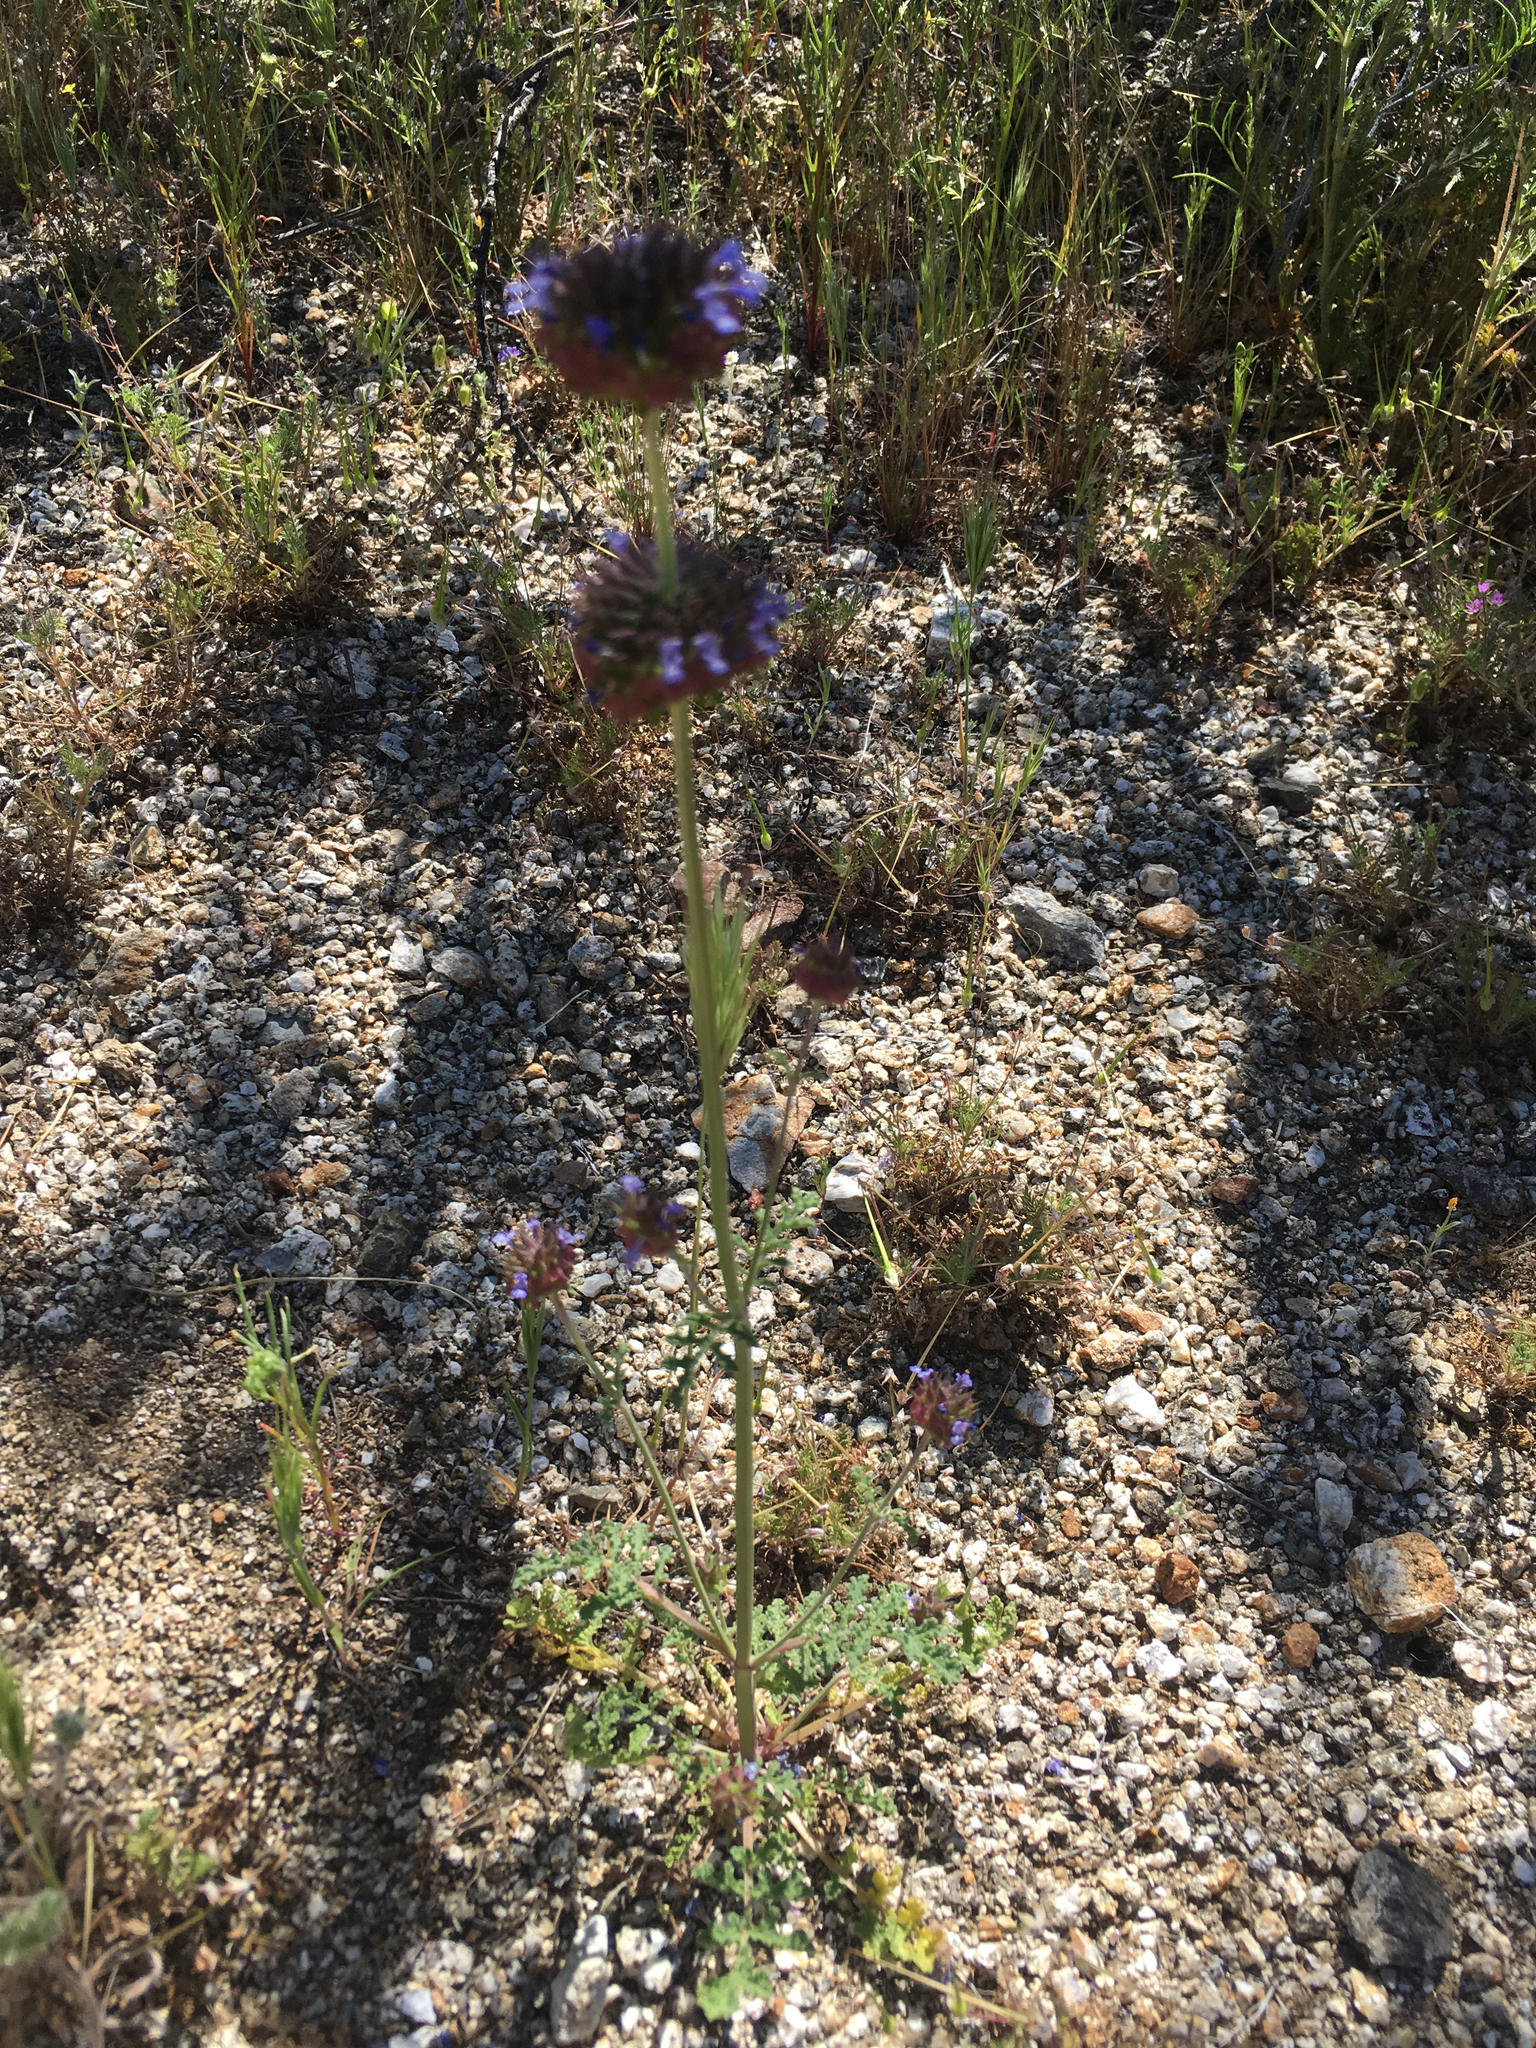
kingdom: Plantae
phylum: Tracheophyta
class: Magnoliopsida
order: Lamiales
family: Lamiaceae
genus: Salvia
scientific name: Salvia columbariae
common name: Chia
